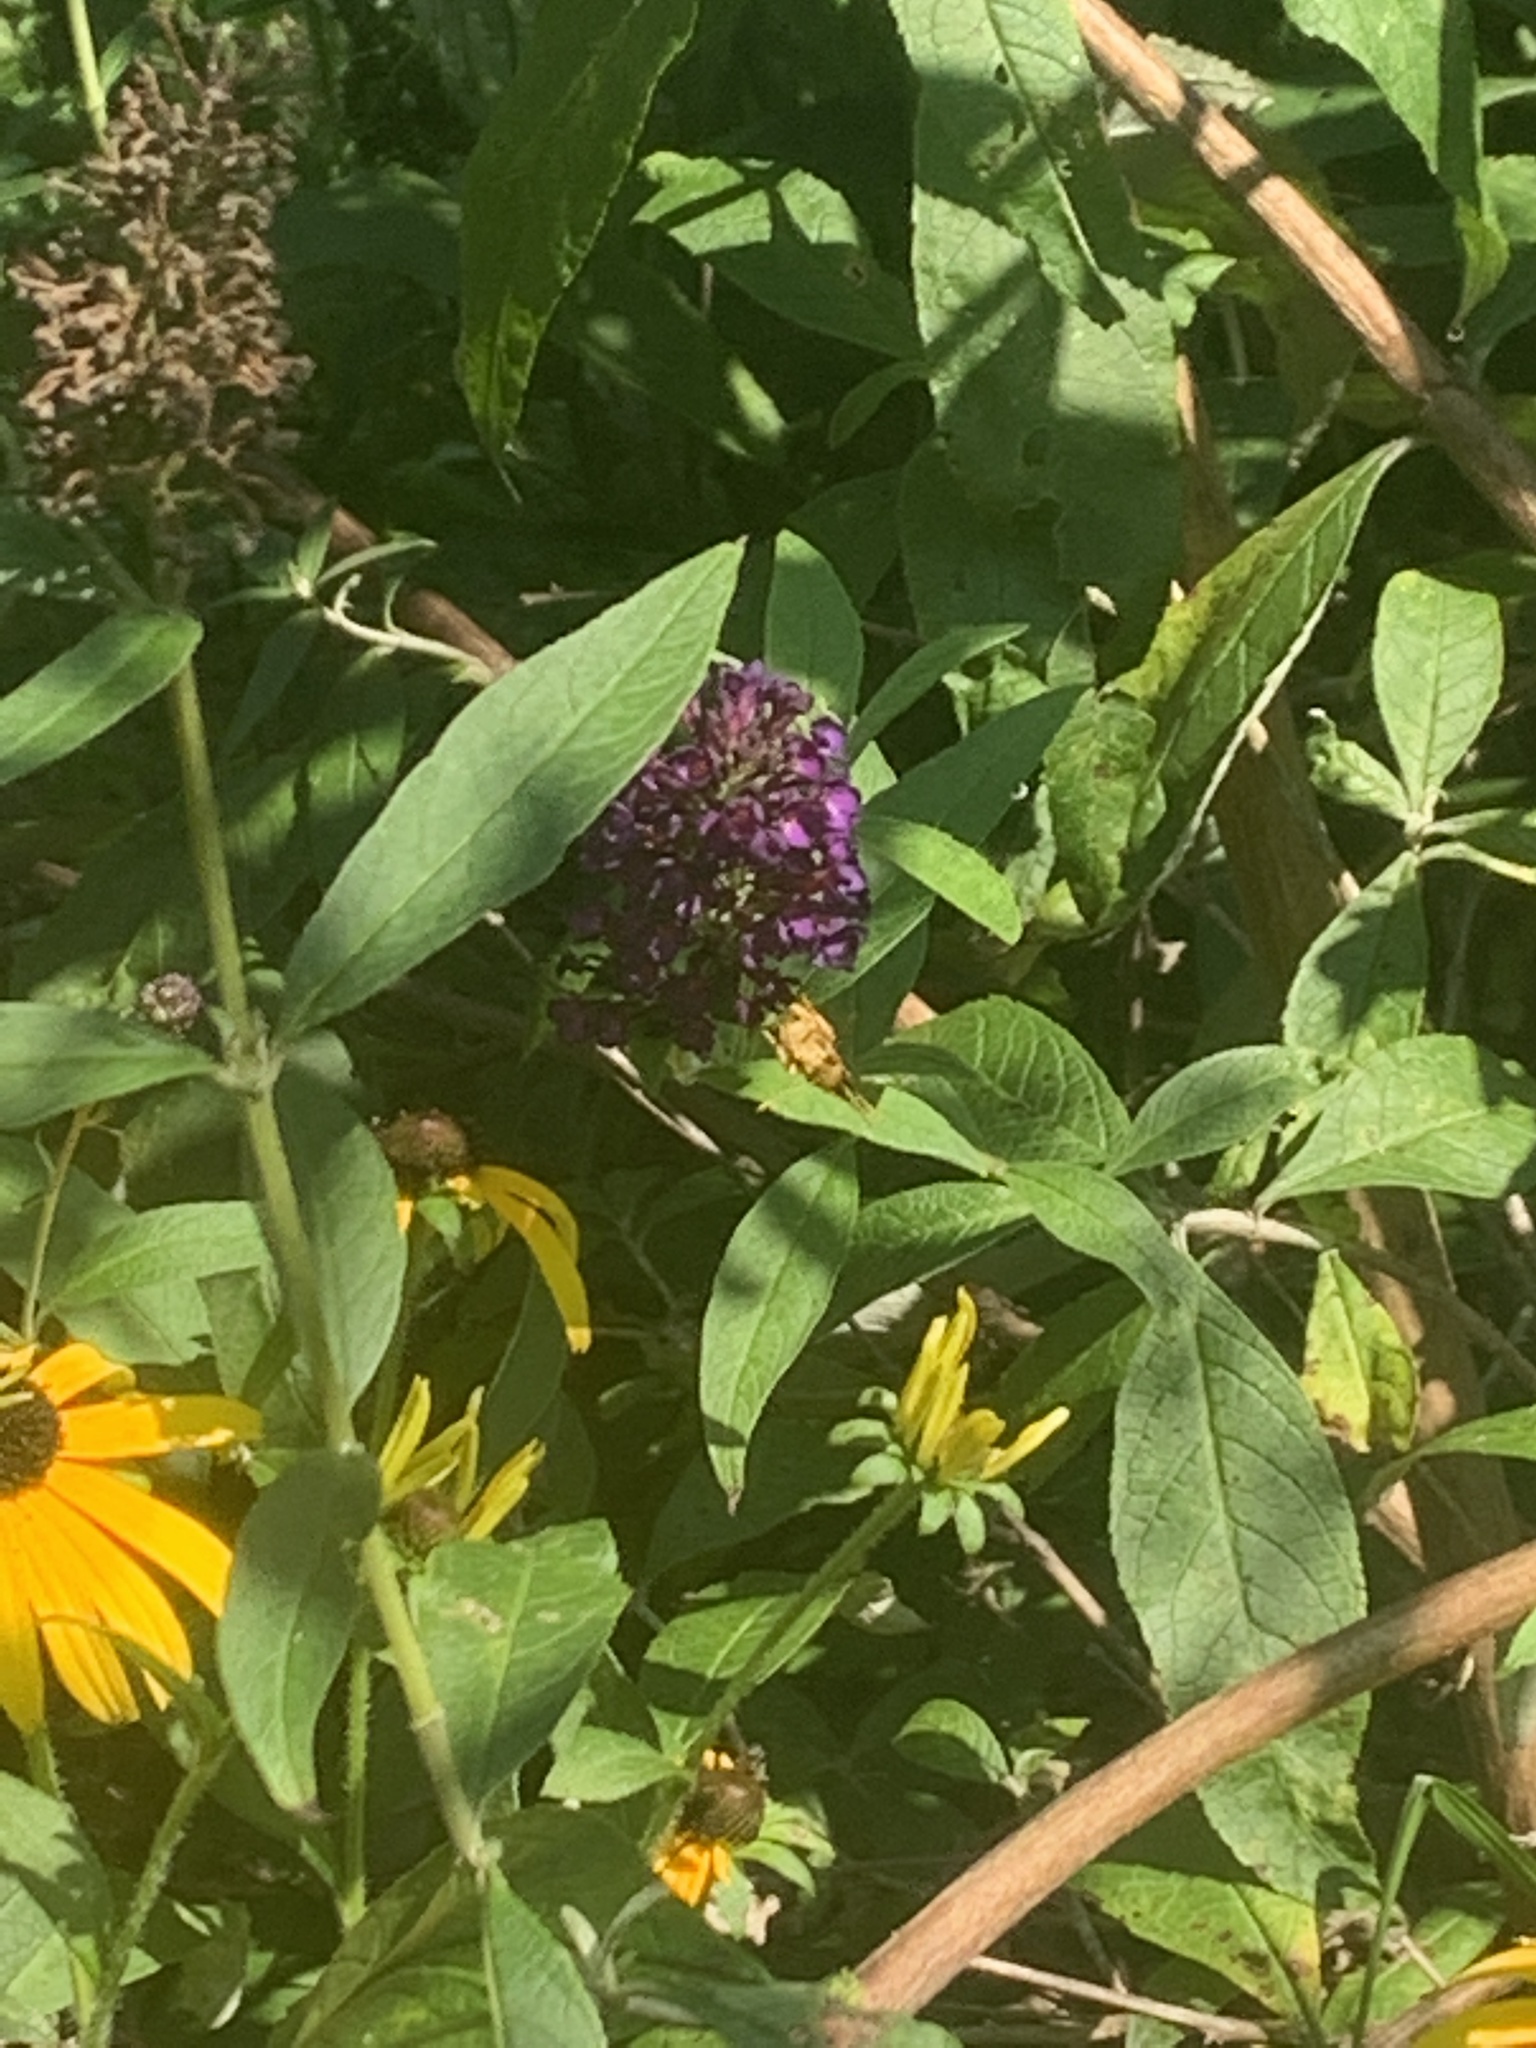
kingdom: Animalia
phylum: Arthropoda
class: Insecta
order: Lepidoptera
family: Hesperiidae
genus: Lon
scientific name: Lon zabulon
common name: Zabulon skipper
